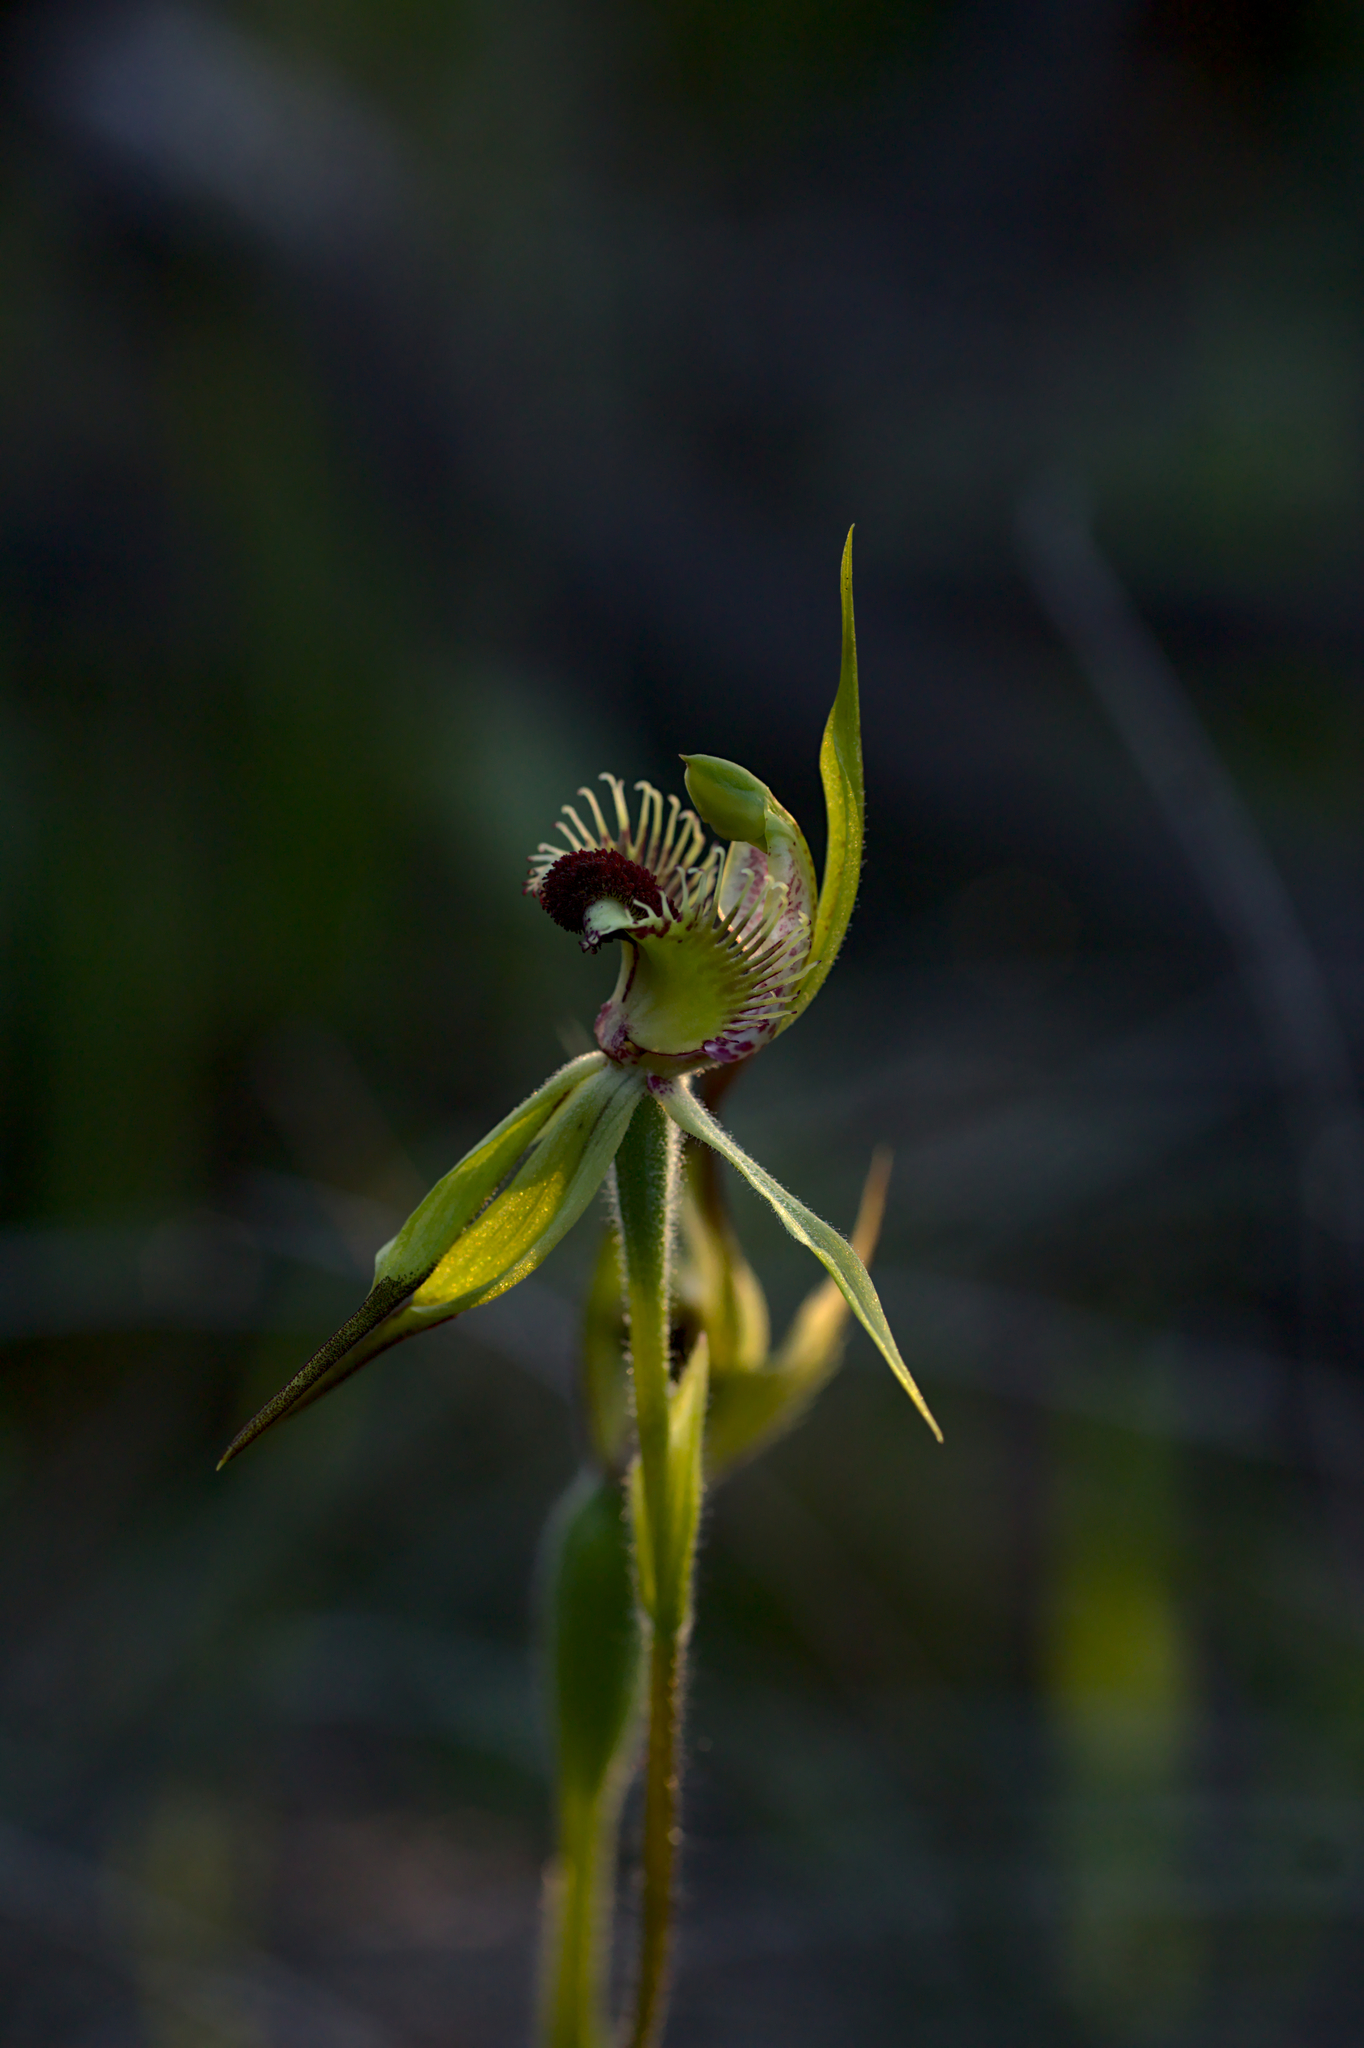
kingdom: Plantae
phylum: Tracheophyta
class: Liliopsida
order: Asparagales
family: Orchidaceae
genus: Caladenia
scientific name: Caladenia crebra
